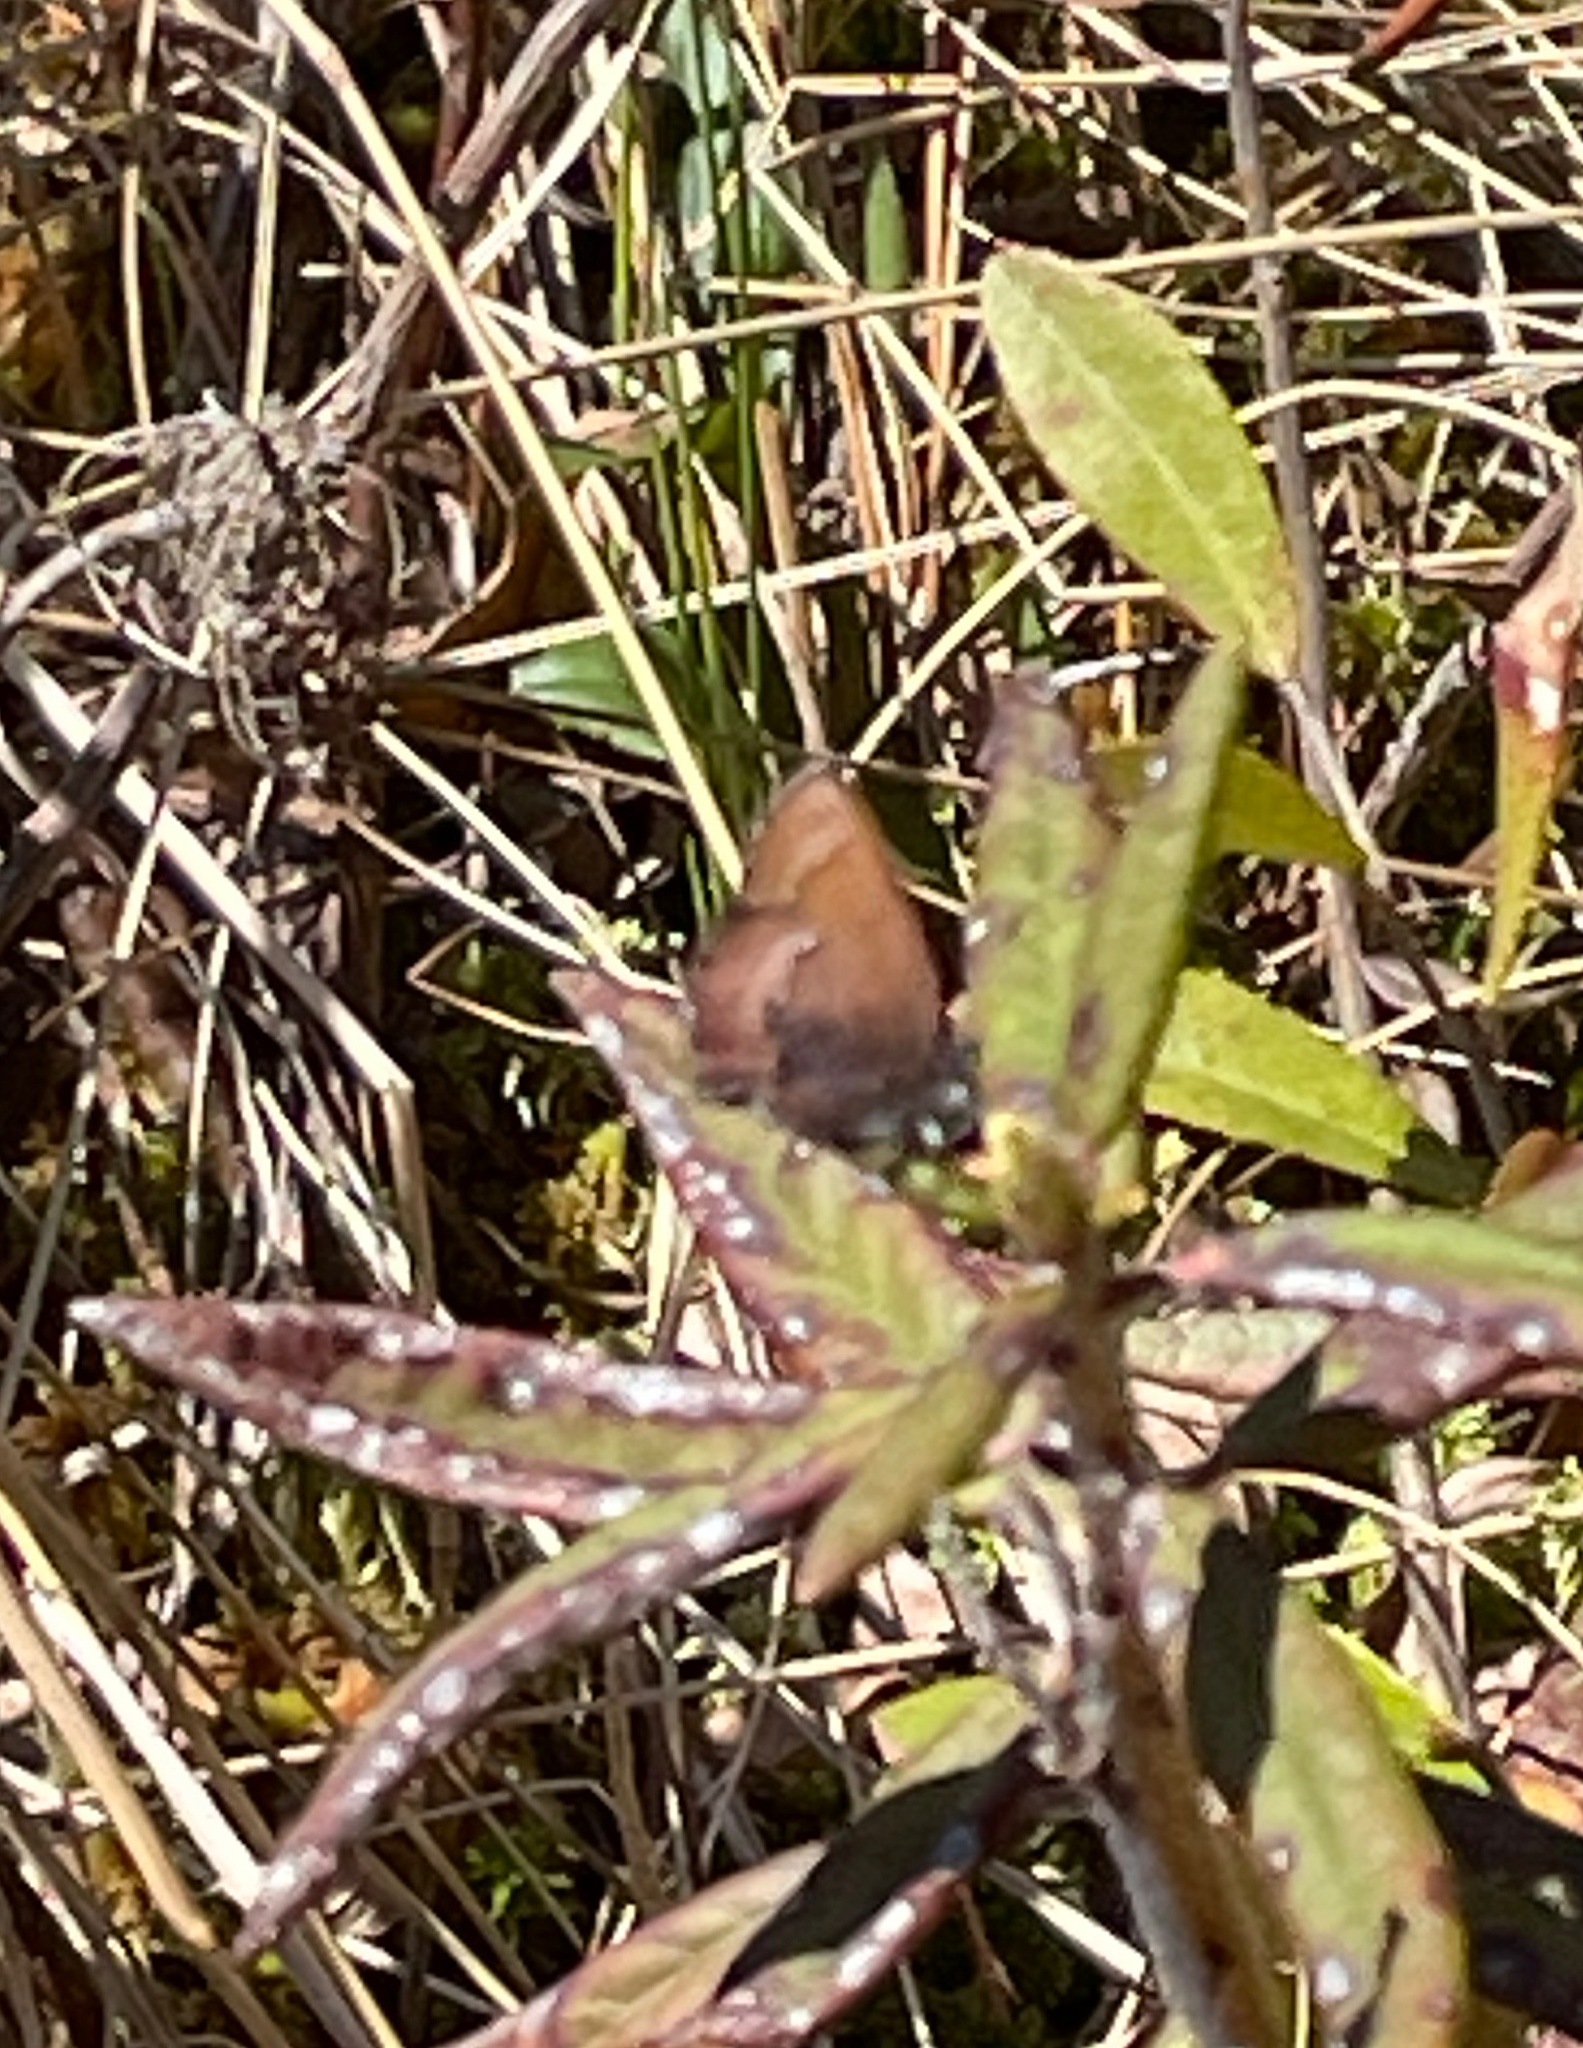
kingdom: Animalia
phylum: Arthropoda
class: Insecta
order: Lepidoptera
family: Lycaenidae
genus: Incisalia
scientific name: Incisalia irioides
